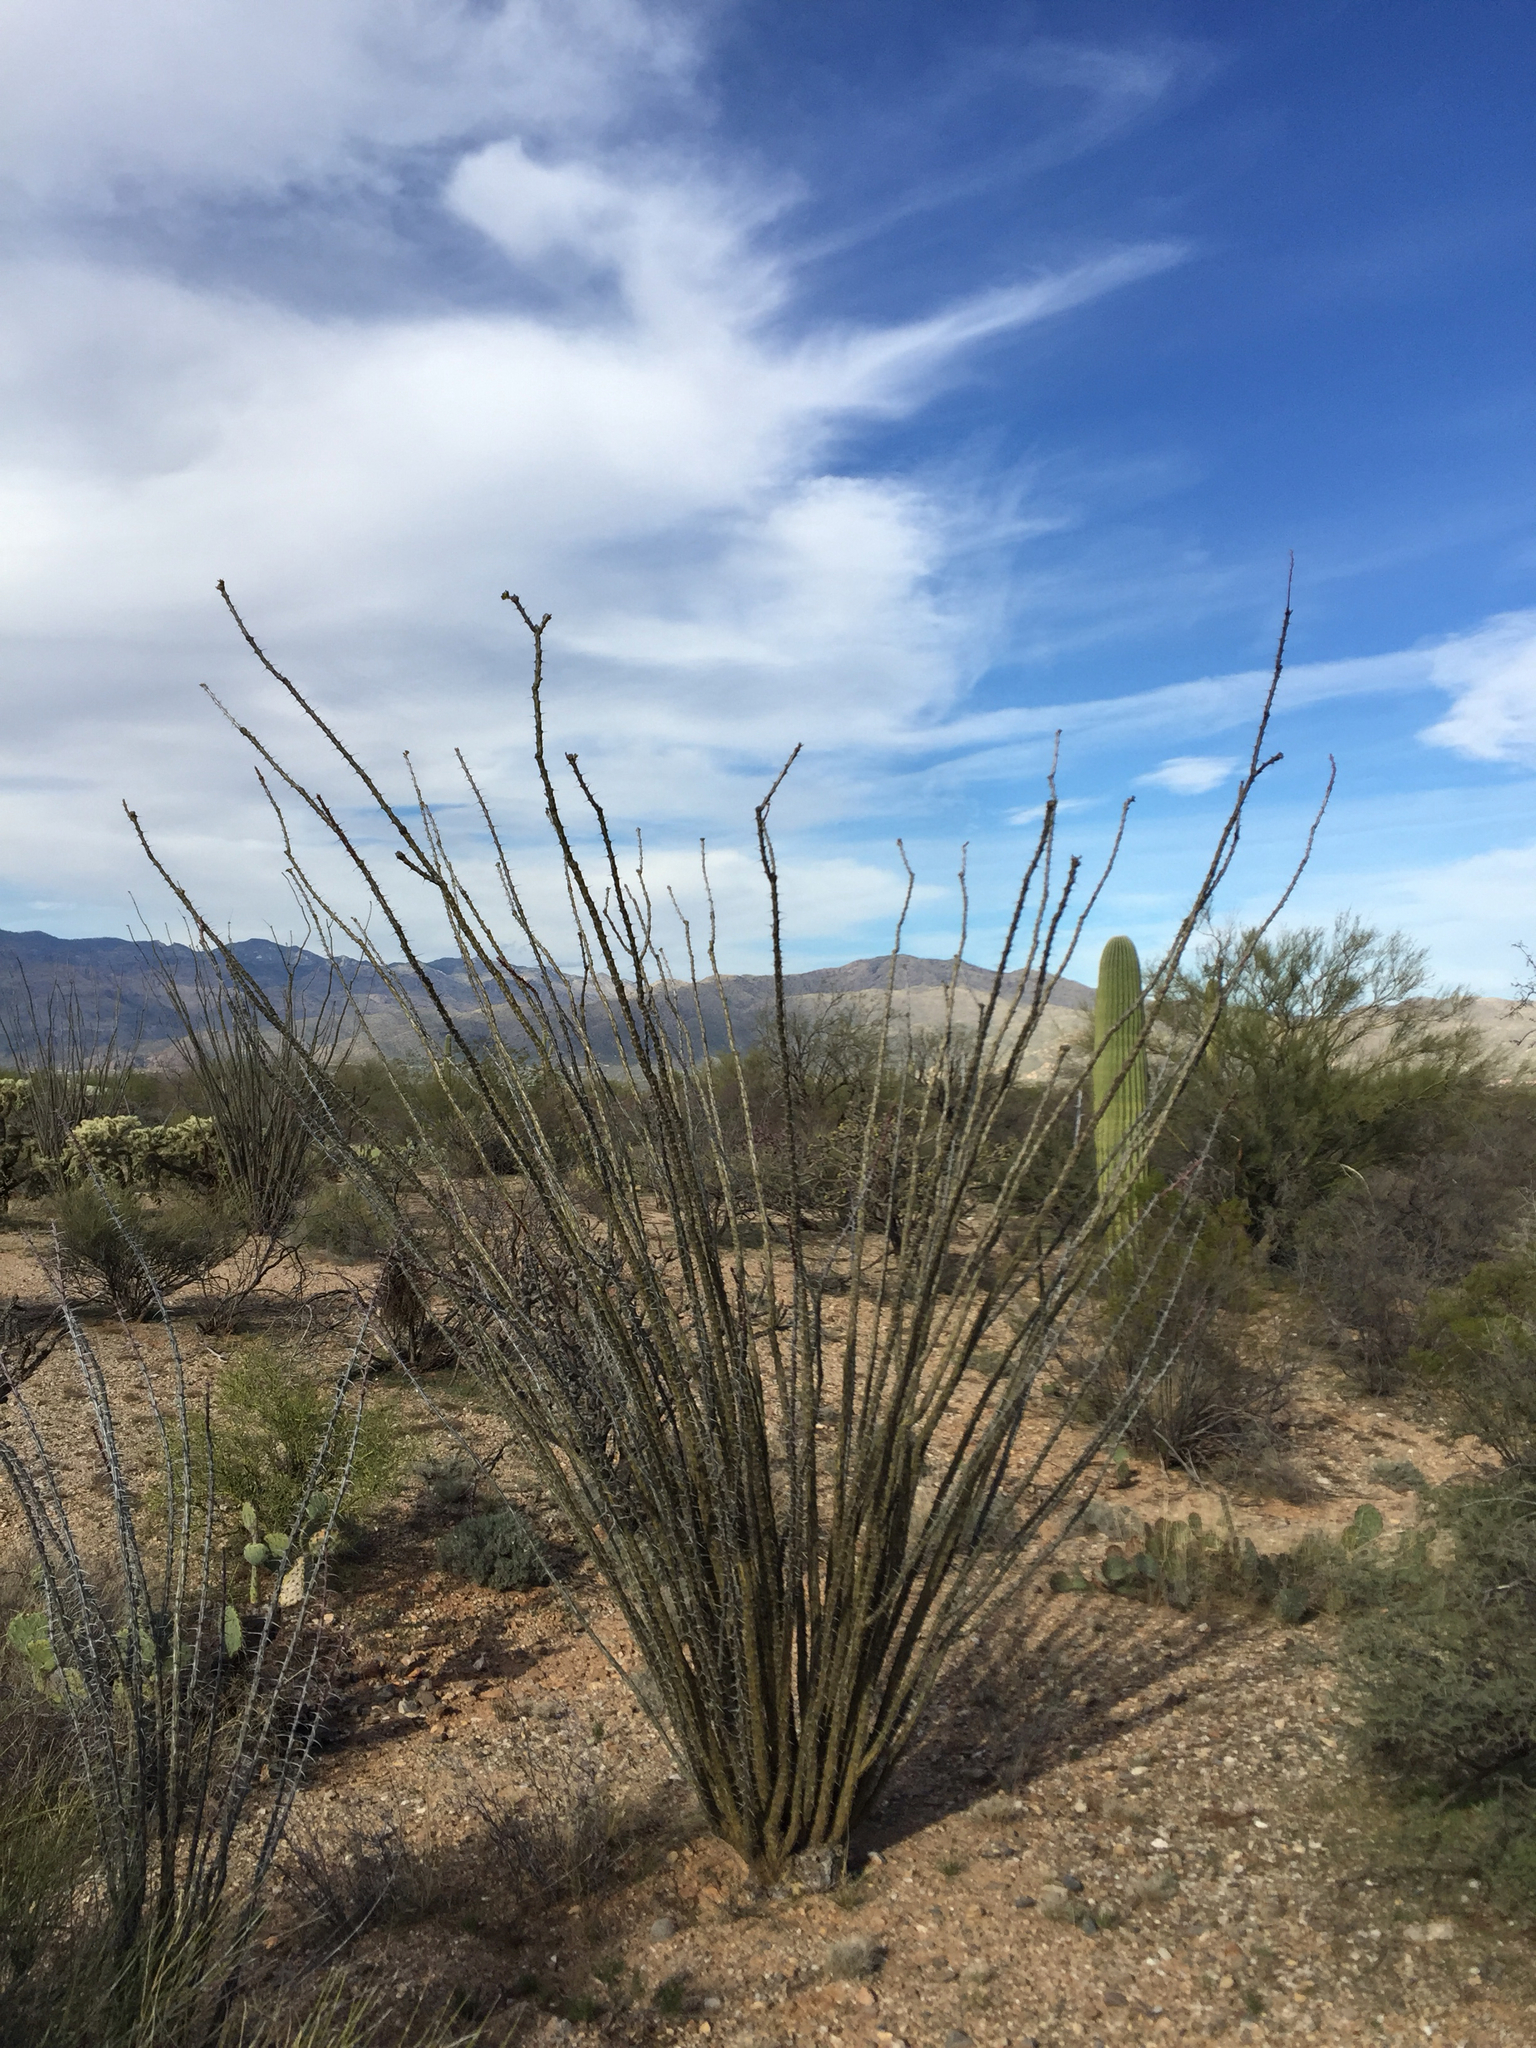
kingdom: Plantae
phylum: Tracheophyta
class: Magnoliopsida
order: Ericales
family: Fouquieriaceae
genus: Fouquieria
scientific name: Fouquieria splendens
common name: Vine-cactus
